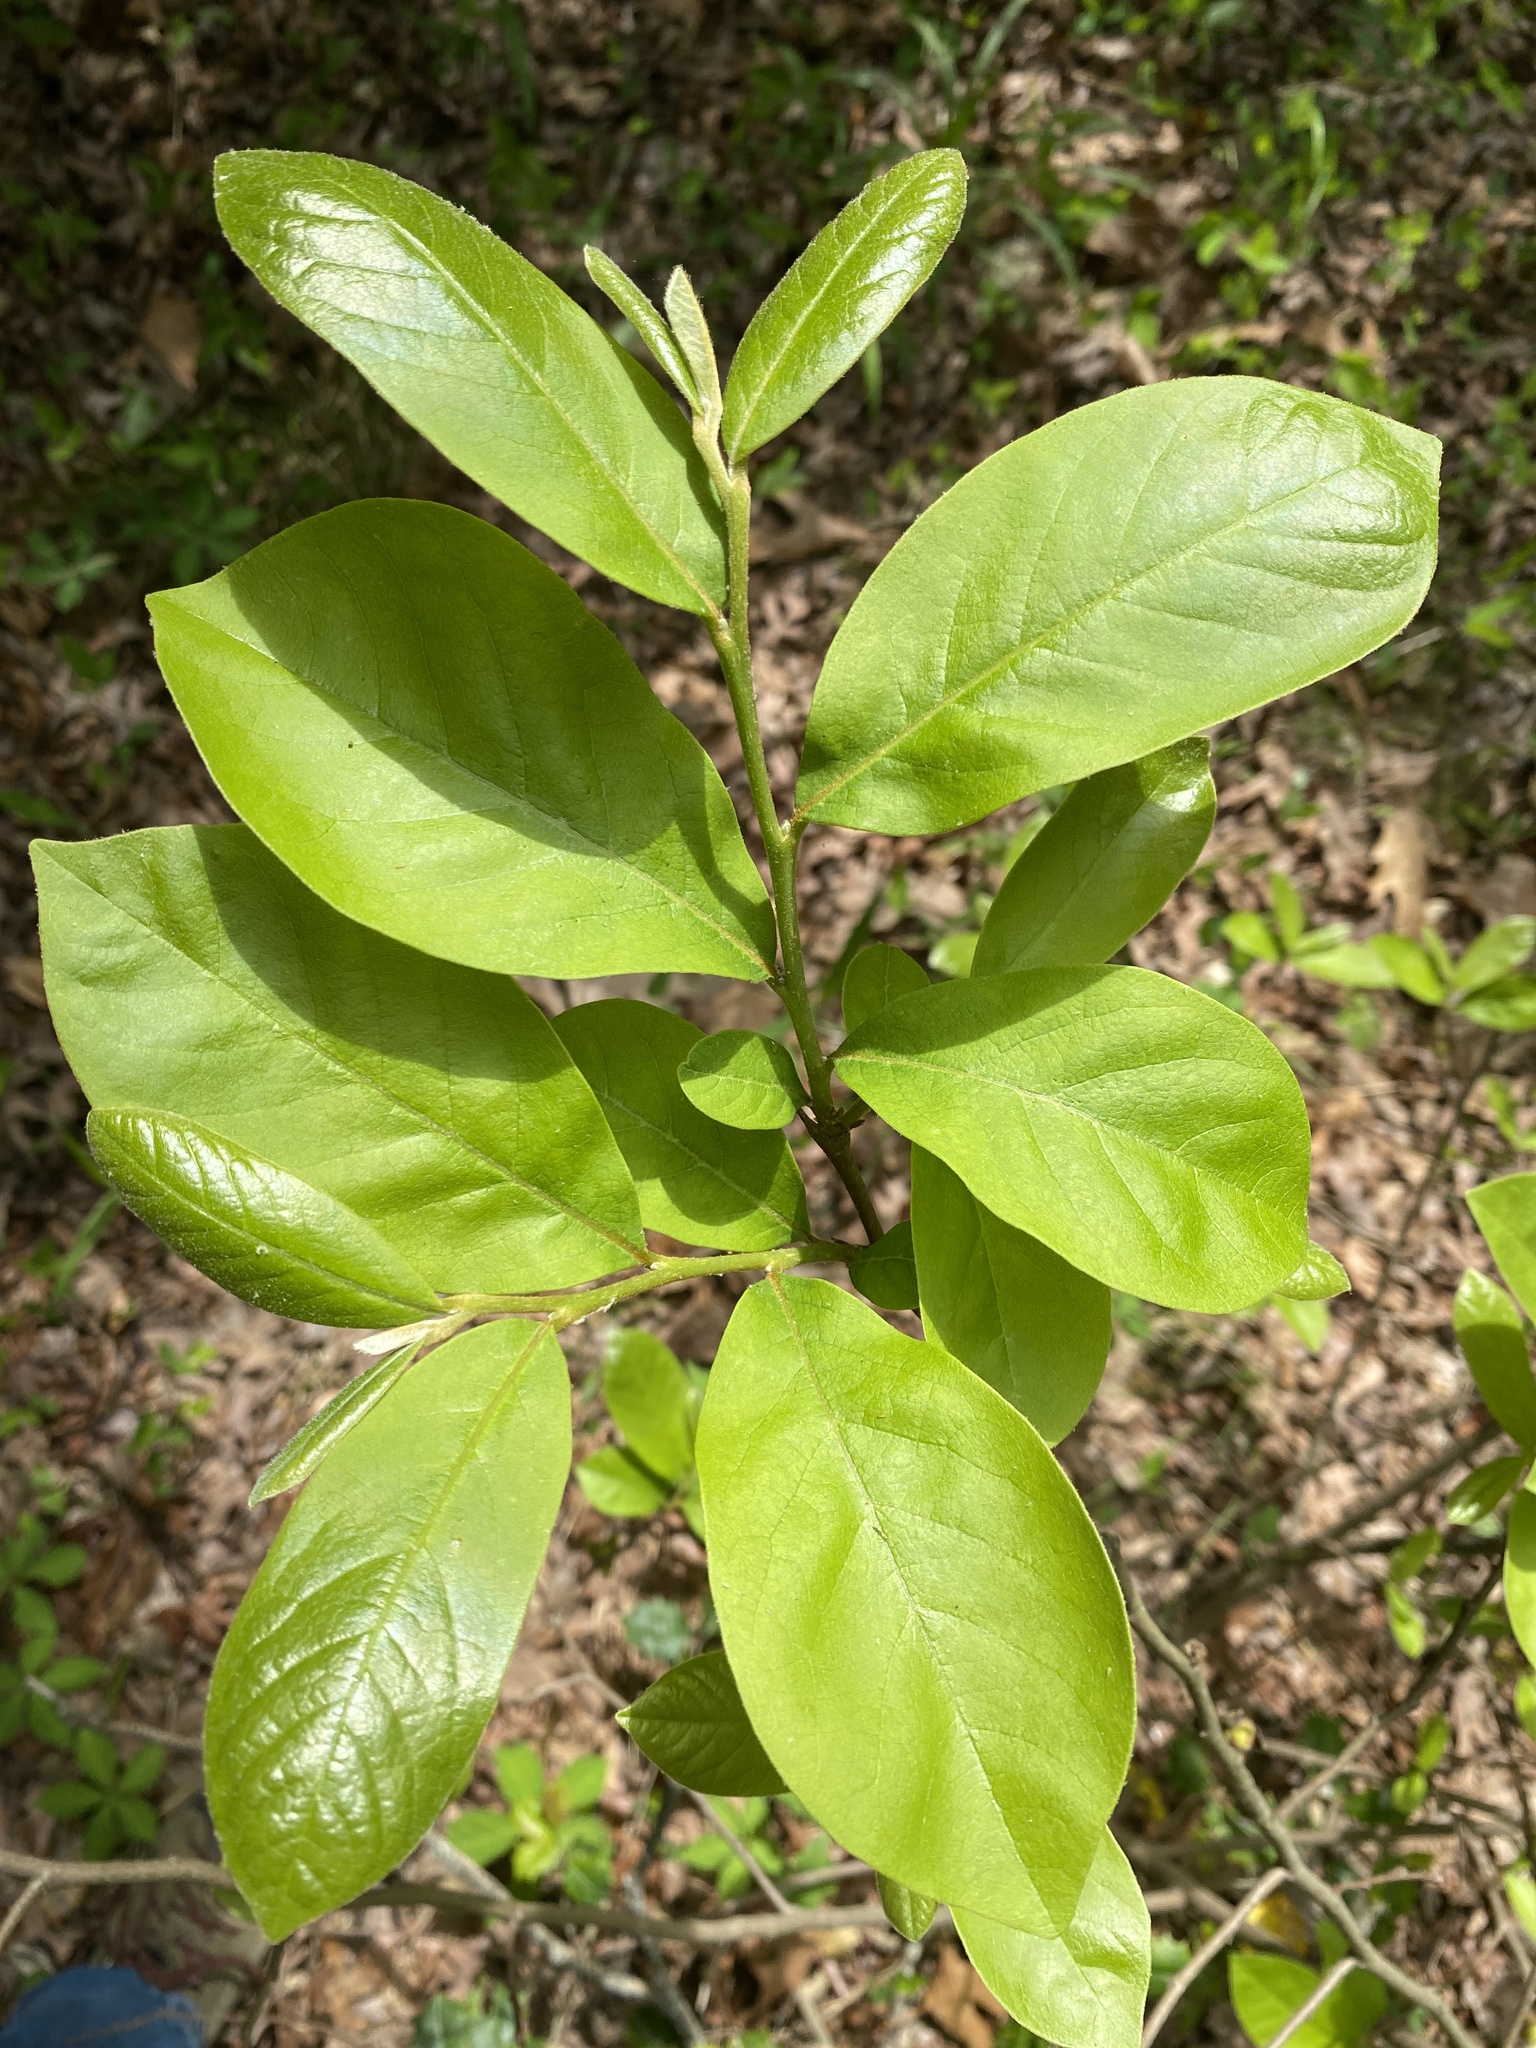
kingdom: Plantae
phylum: Tracheophyta
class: Magnoliopsida
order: Magnoliales
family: Annonaceae
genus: Asimina
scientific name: Asimina parviflora
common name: Dwarf pawpaw
